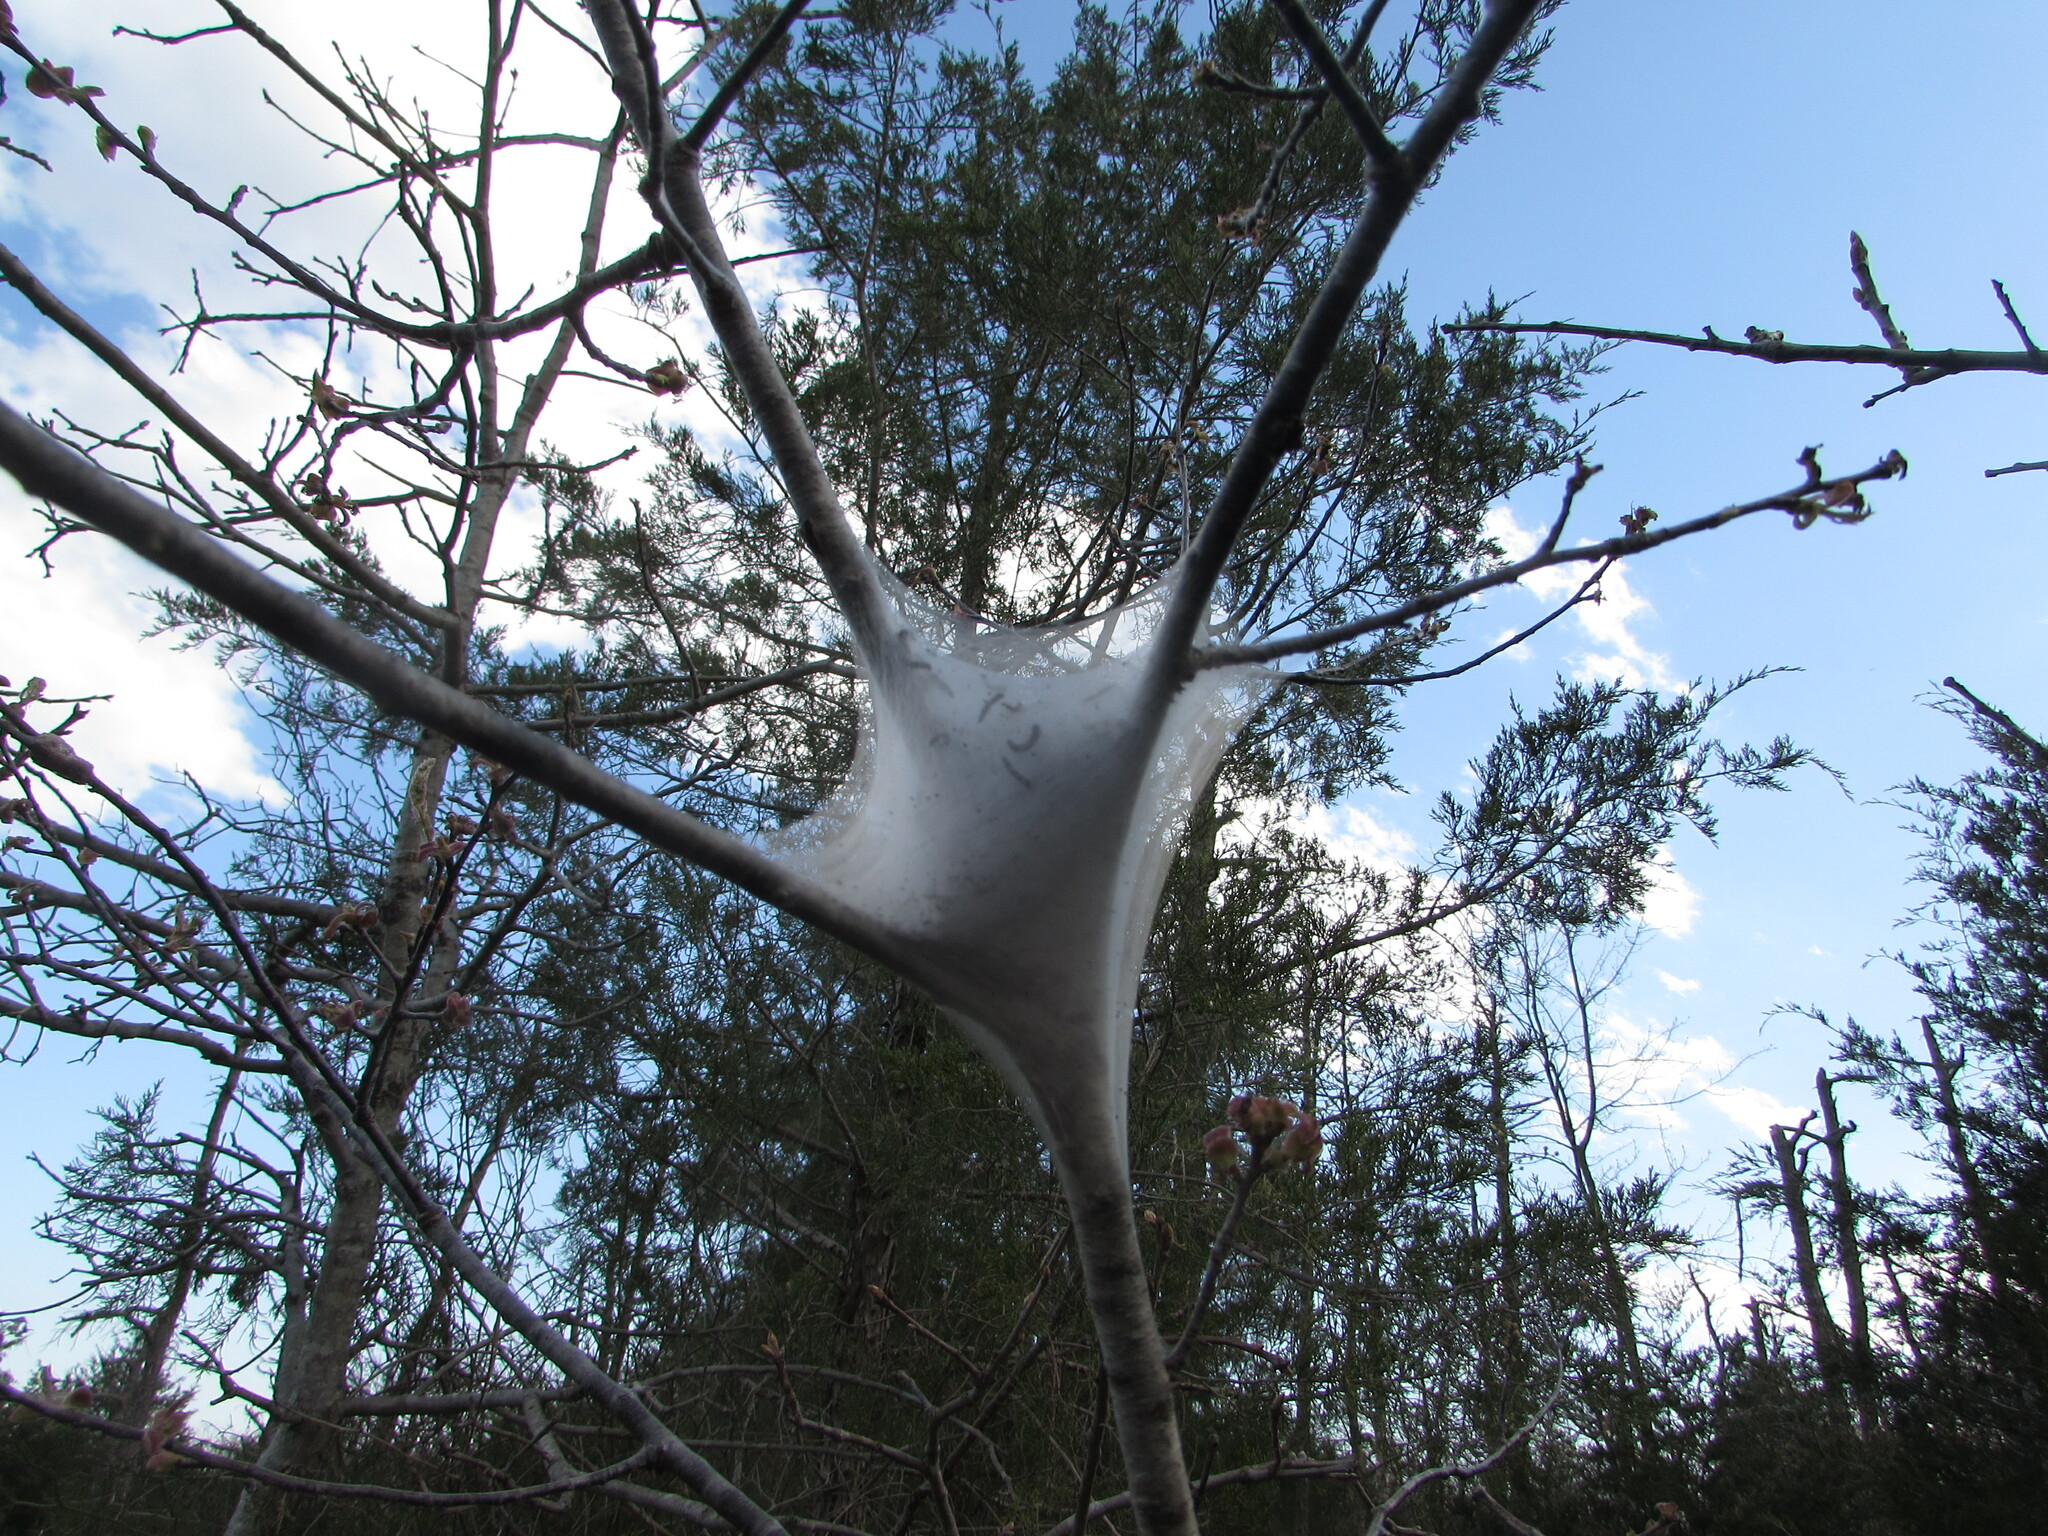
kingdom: Animalia
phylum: Arthropoda
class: Insecta
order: Lepidoptera
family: Lasiocampidae
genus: Malacosoma
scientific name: Malacosoma americana
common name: Eastern tent caterpillar moth
